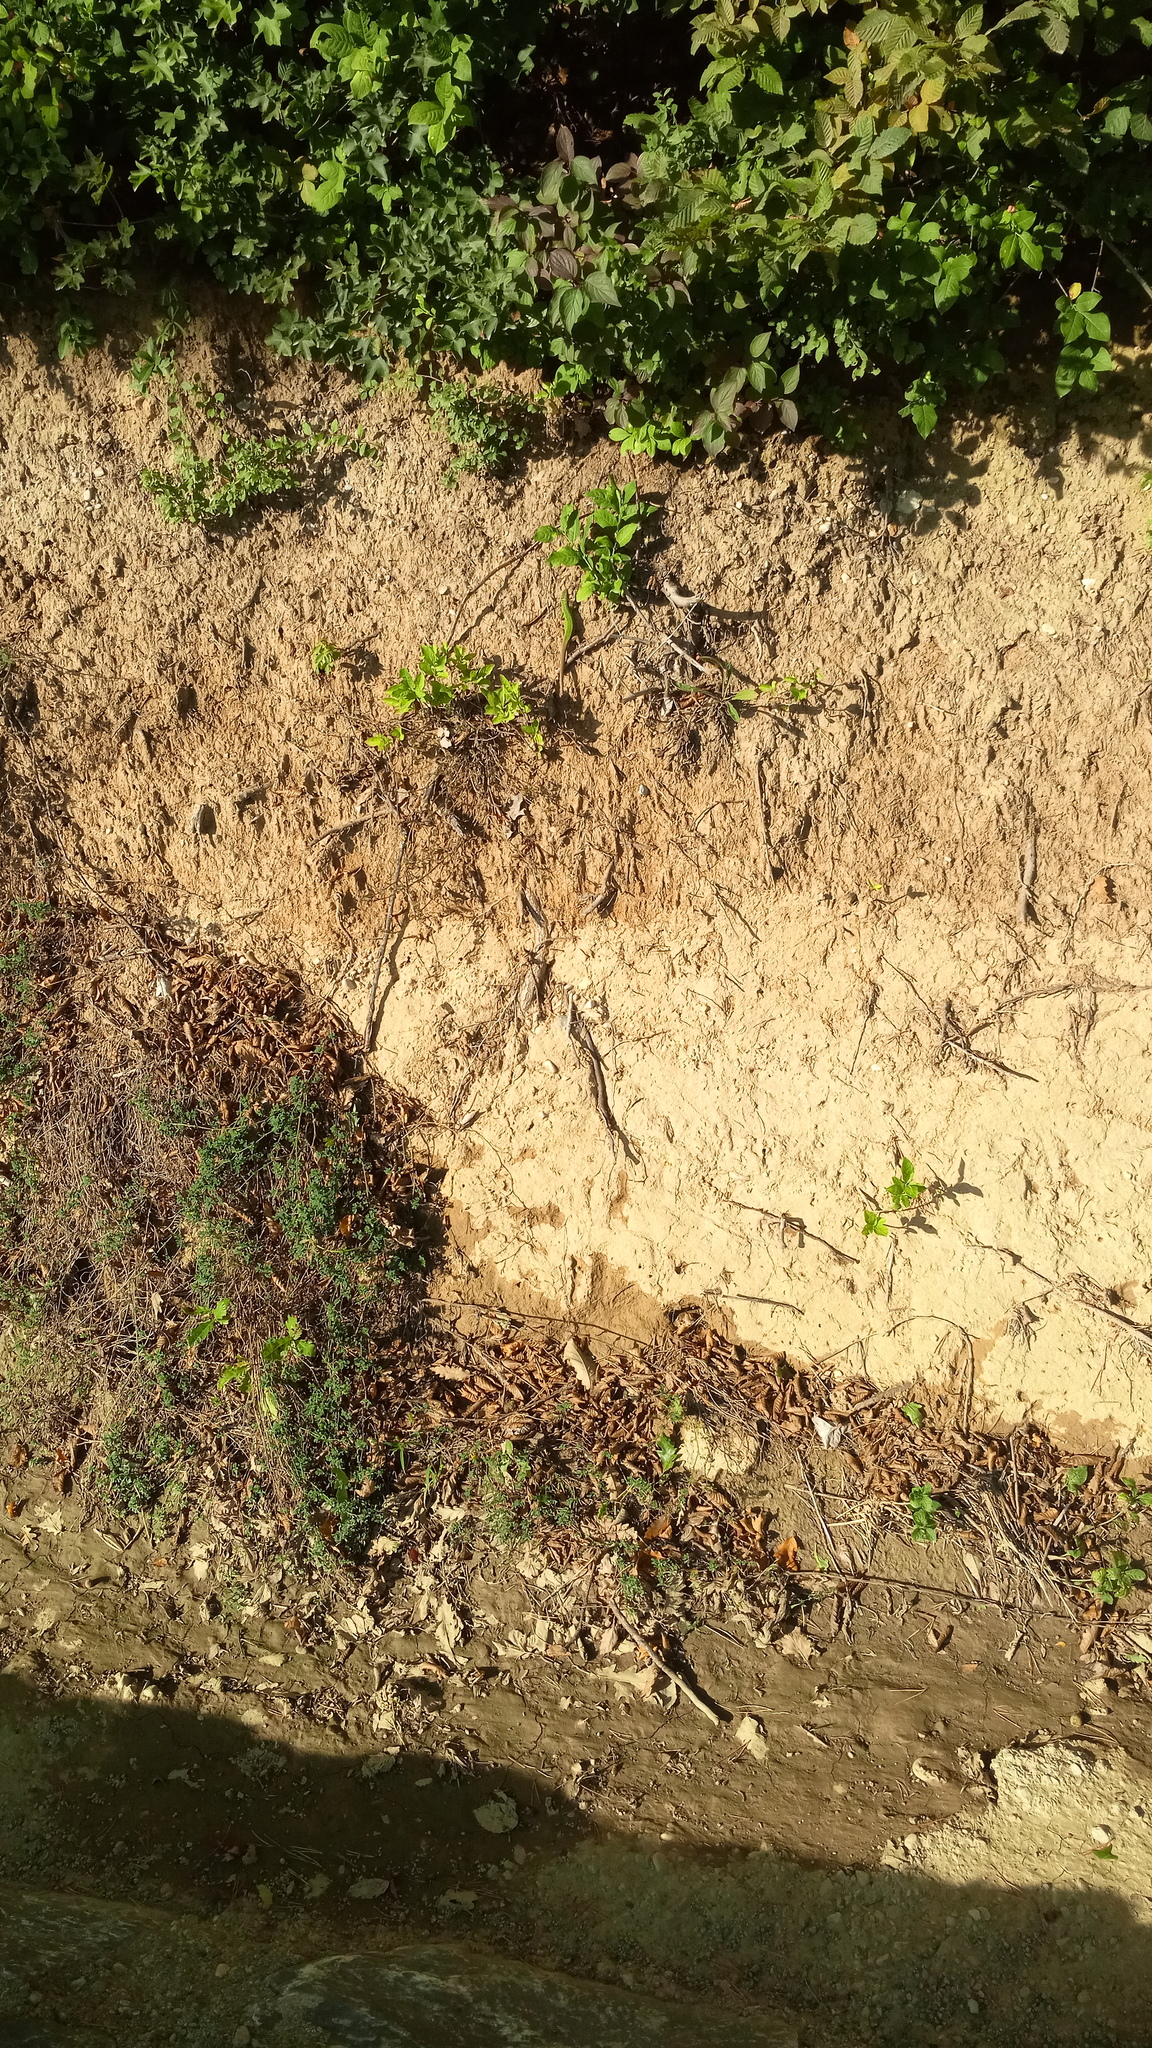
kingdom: Animalia
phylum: Chordata
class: Squamata
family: Lacertidae
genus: Lacerta
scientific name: Lacerta viridis
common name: European green lizard
